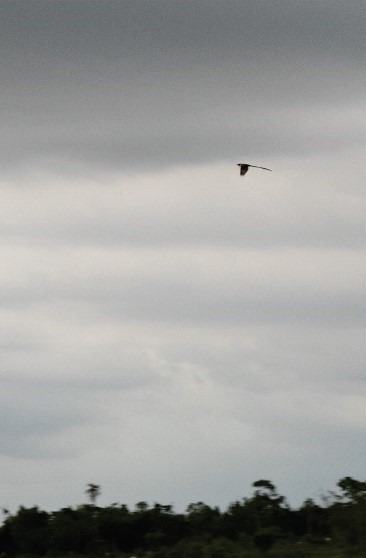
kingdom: Animalia
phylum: Chordata
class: Aves
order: Passeriformes
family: Tyrannidae
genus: Tyrannus
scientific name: Tyrannus savana
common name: Fork-tailed flycatcher
